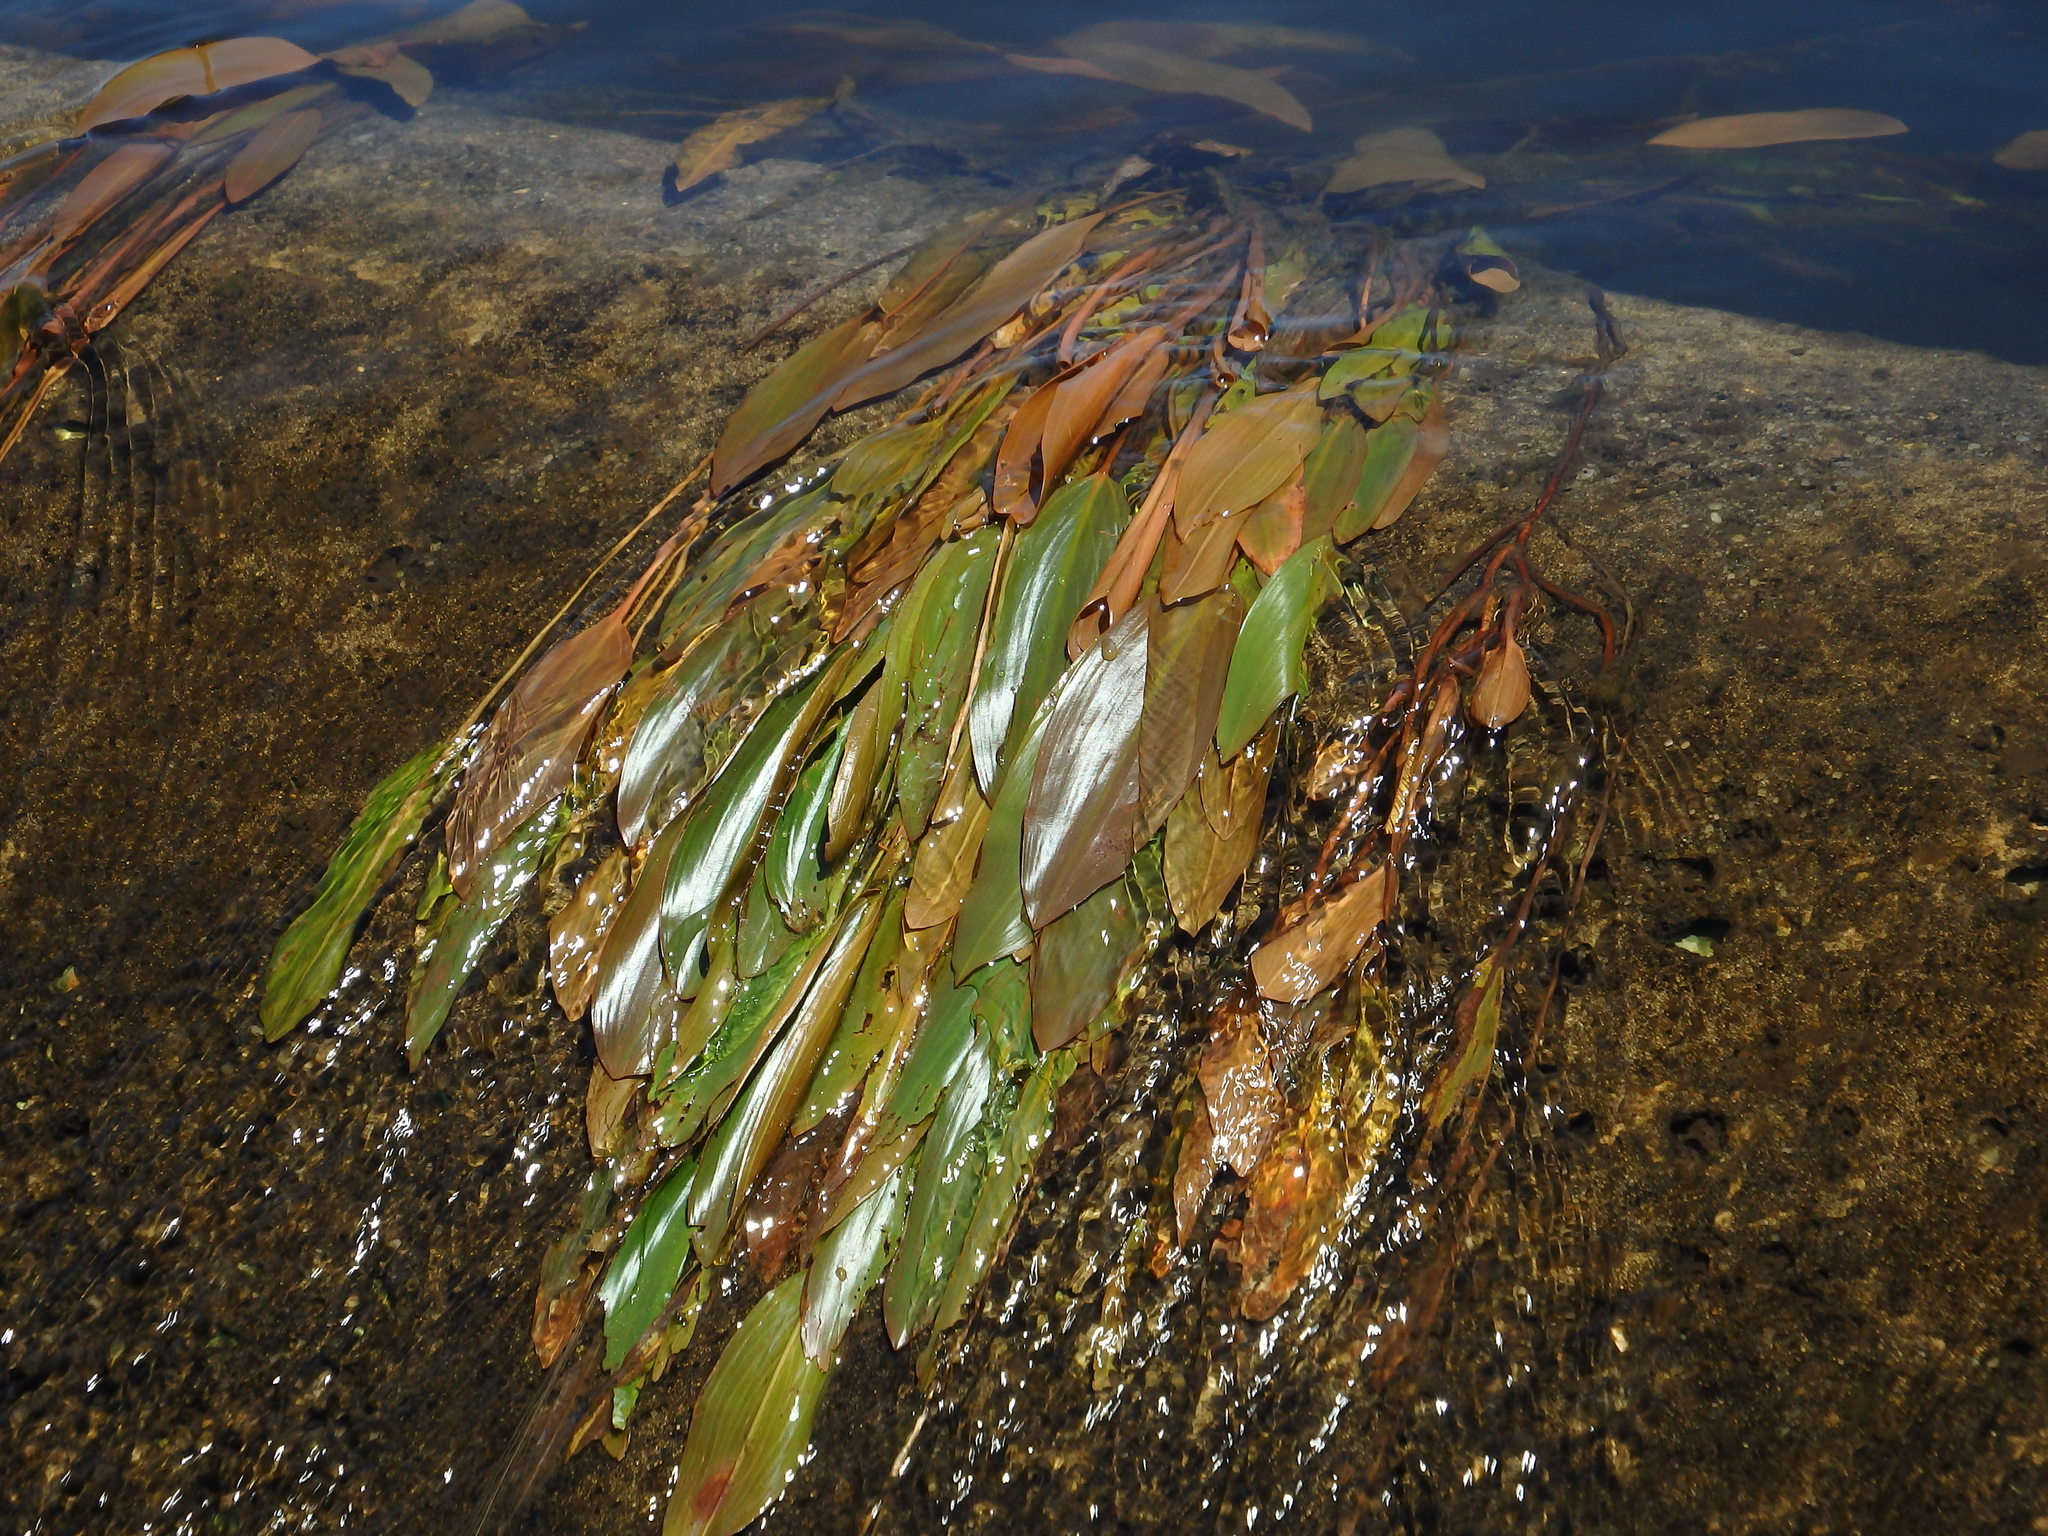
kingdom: Plantae
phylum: Tracheophyta
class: Liliopsida
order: Alismatales
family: Potamogetonaceae
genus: Potamogeton
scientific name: Potamogeton nodosus
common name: Loddon pondweed
